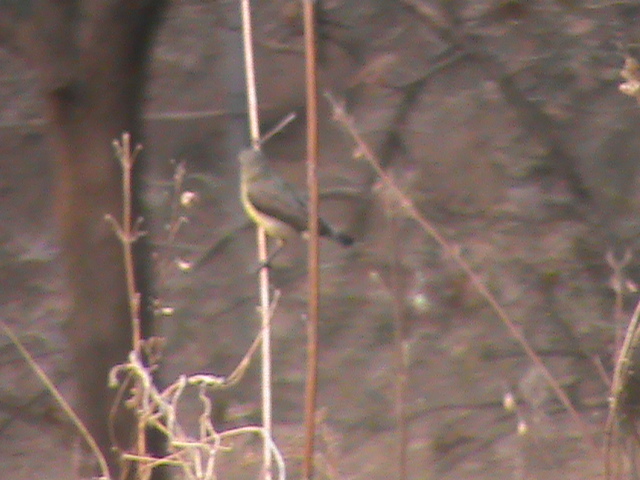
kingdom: Animalia
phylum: Chordata
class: Aves
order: Passeriformes
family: Nectariniidae
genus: Cinnyris
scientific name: Cinnyris asiaticus
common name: Purple sunbird
